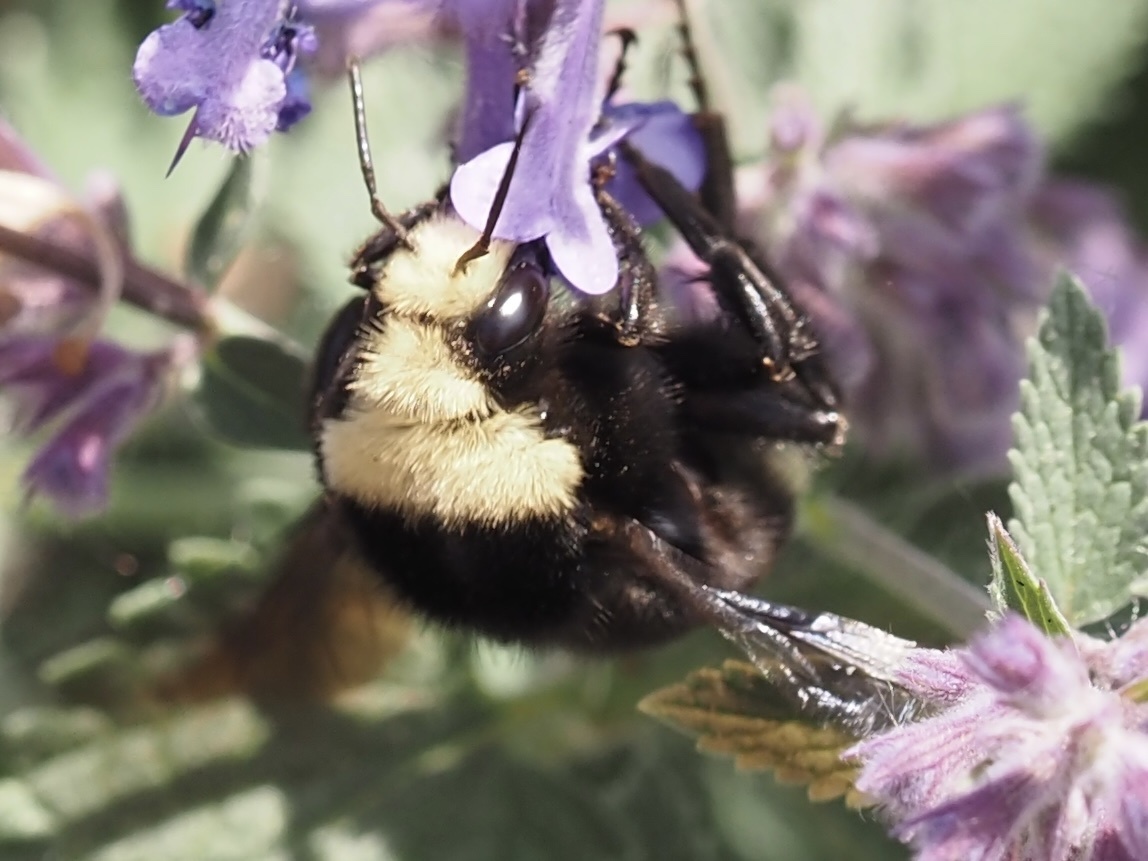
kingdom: Animalia
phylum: Arthropoda
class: Insecta
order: Hymenoptera
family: Apidae
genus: Bombus
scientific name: Bombus vosnesenskii
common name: Vosnesensky bumble bee
